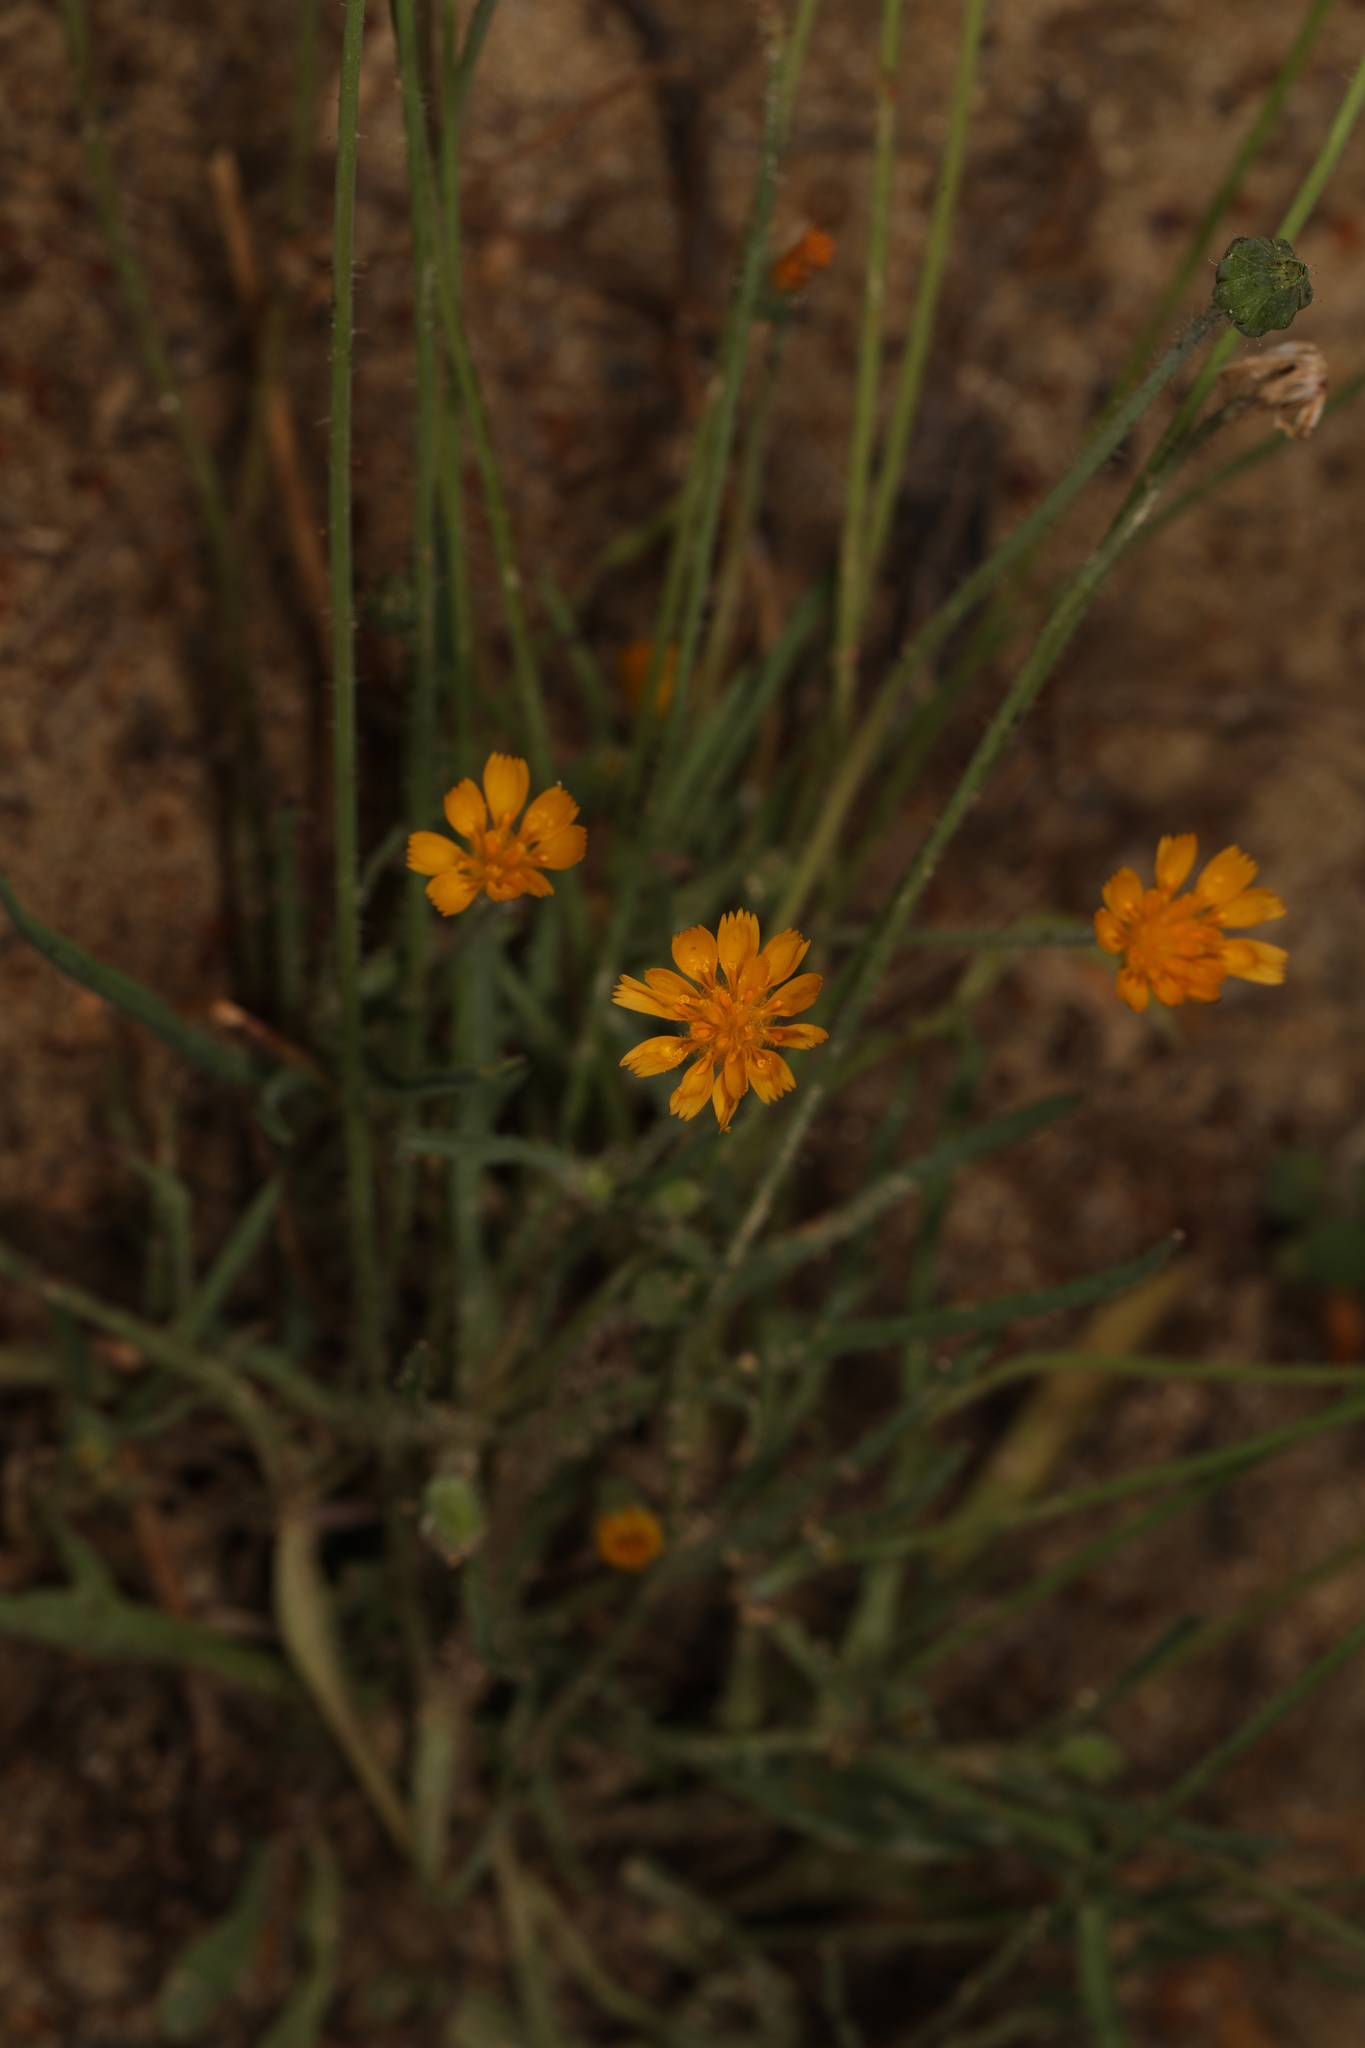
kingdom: Plantae
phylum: Tracheophyta
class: Magnoliopsida
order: Asterales
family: Asteraceae
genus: Krigia
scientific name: Krigia virginica
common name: Virginia dwarf-dandelion
